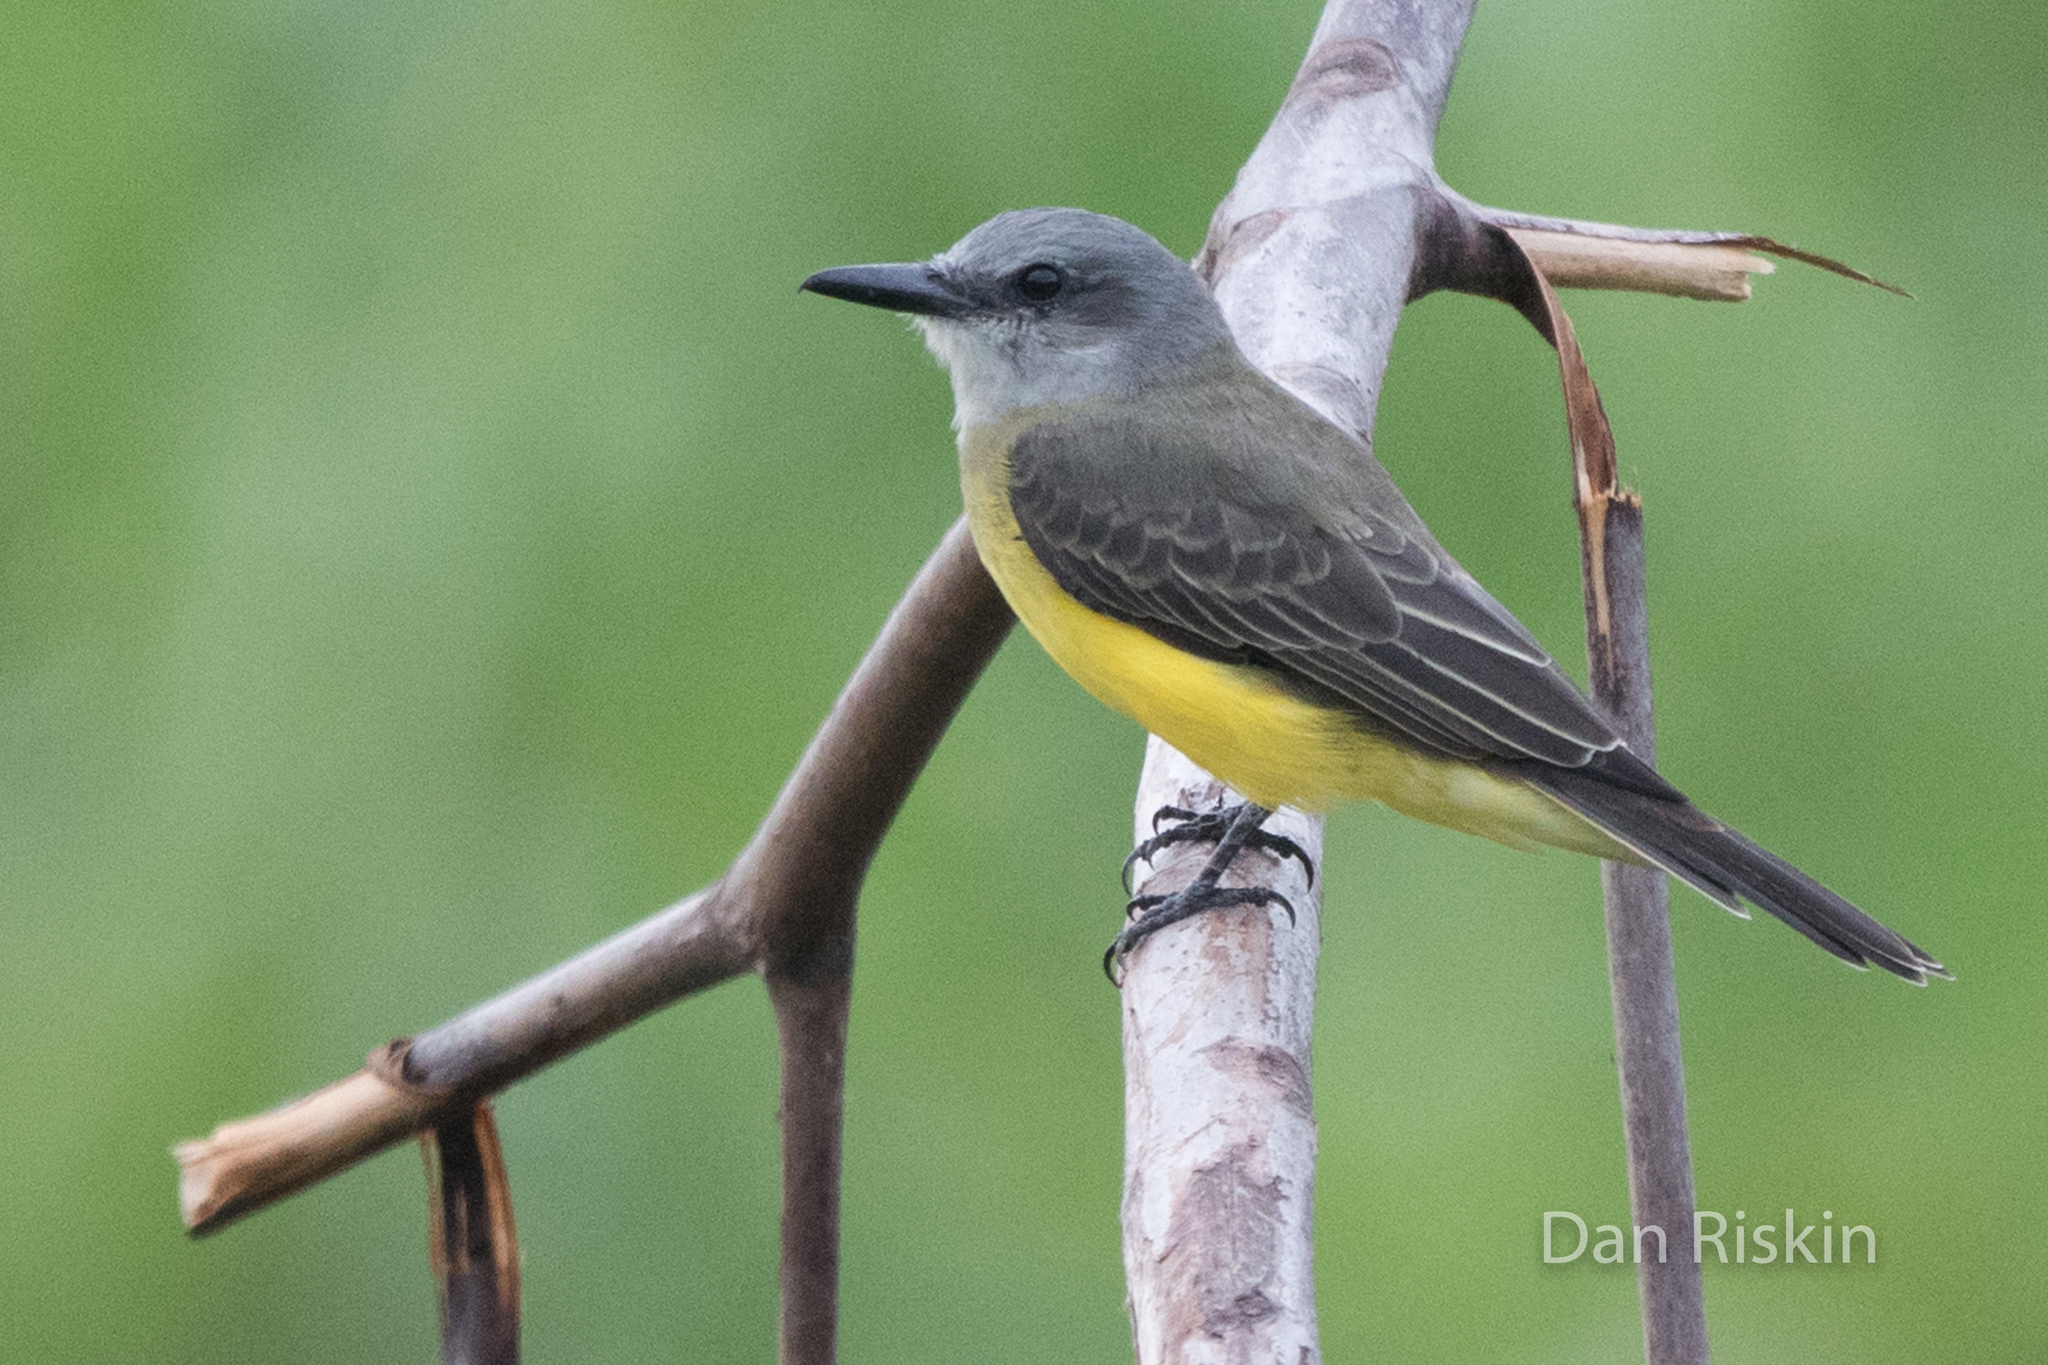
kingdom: Animalia
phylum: Chordata
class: Aves
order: Passeriformes
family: Tyrannidae
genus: Tyrannus
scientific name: Tyrannus melancholicus
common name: Tropical kingbird
